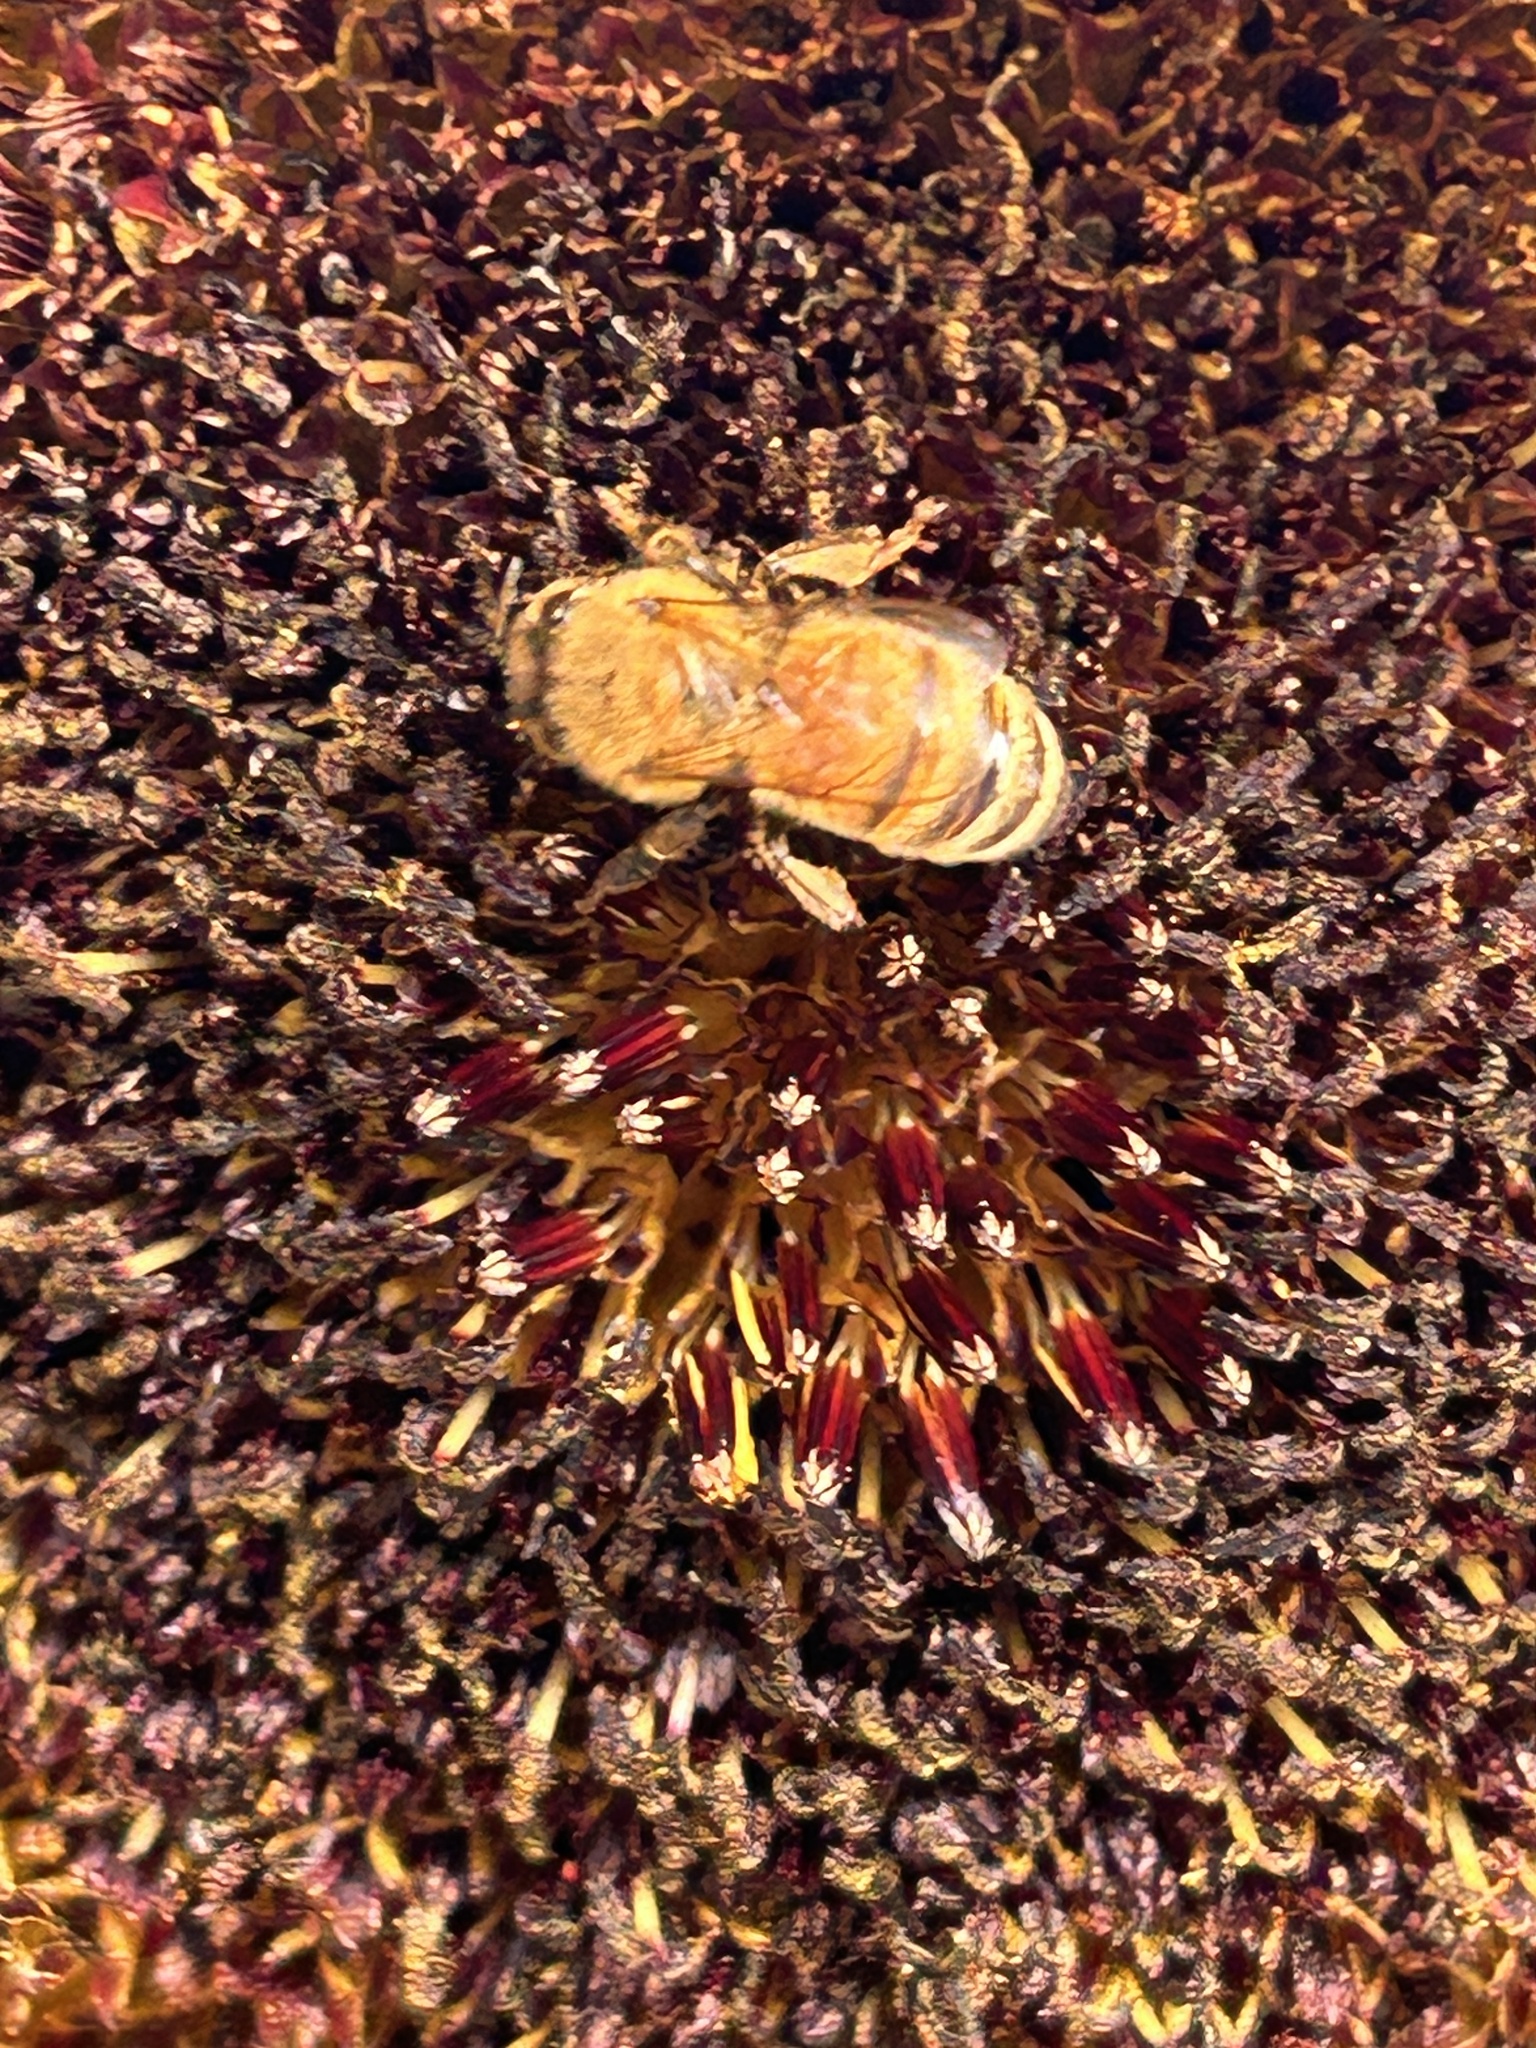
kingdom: Animalia
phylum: Arthropoda
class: Insecta
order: Hymenoptera
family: Apidae
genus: Apis
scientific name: Apis mellifera
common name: Honey bee
